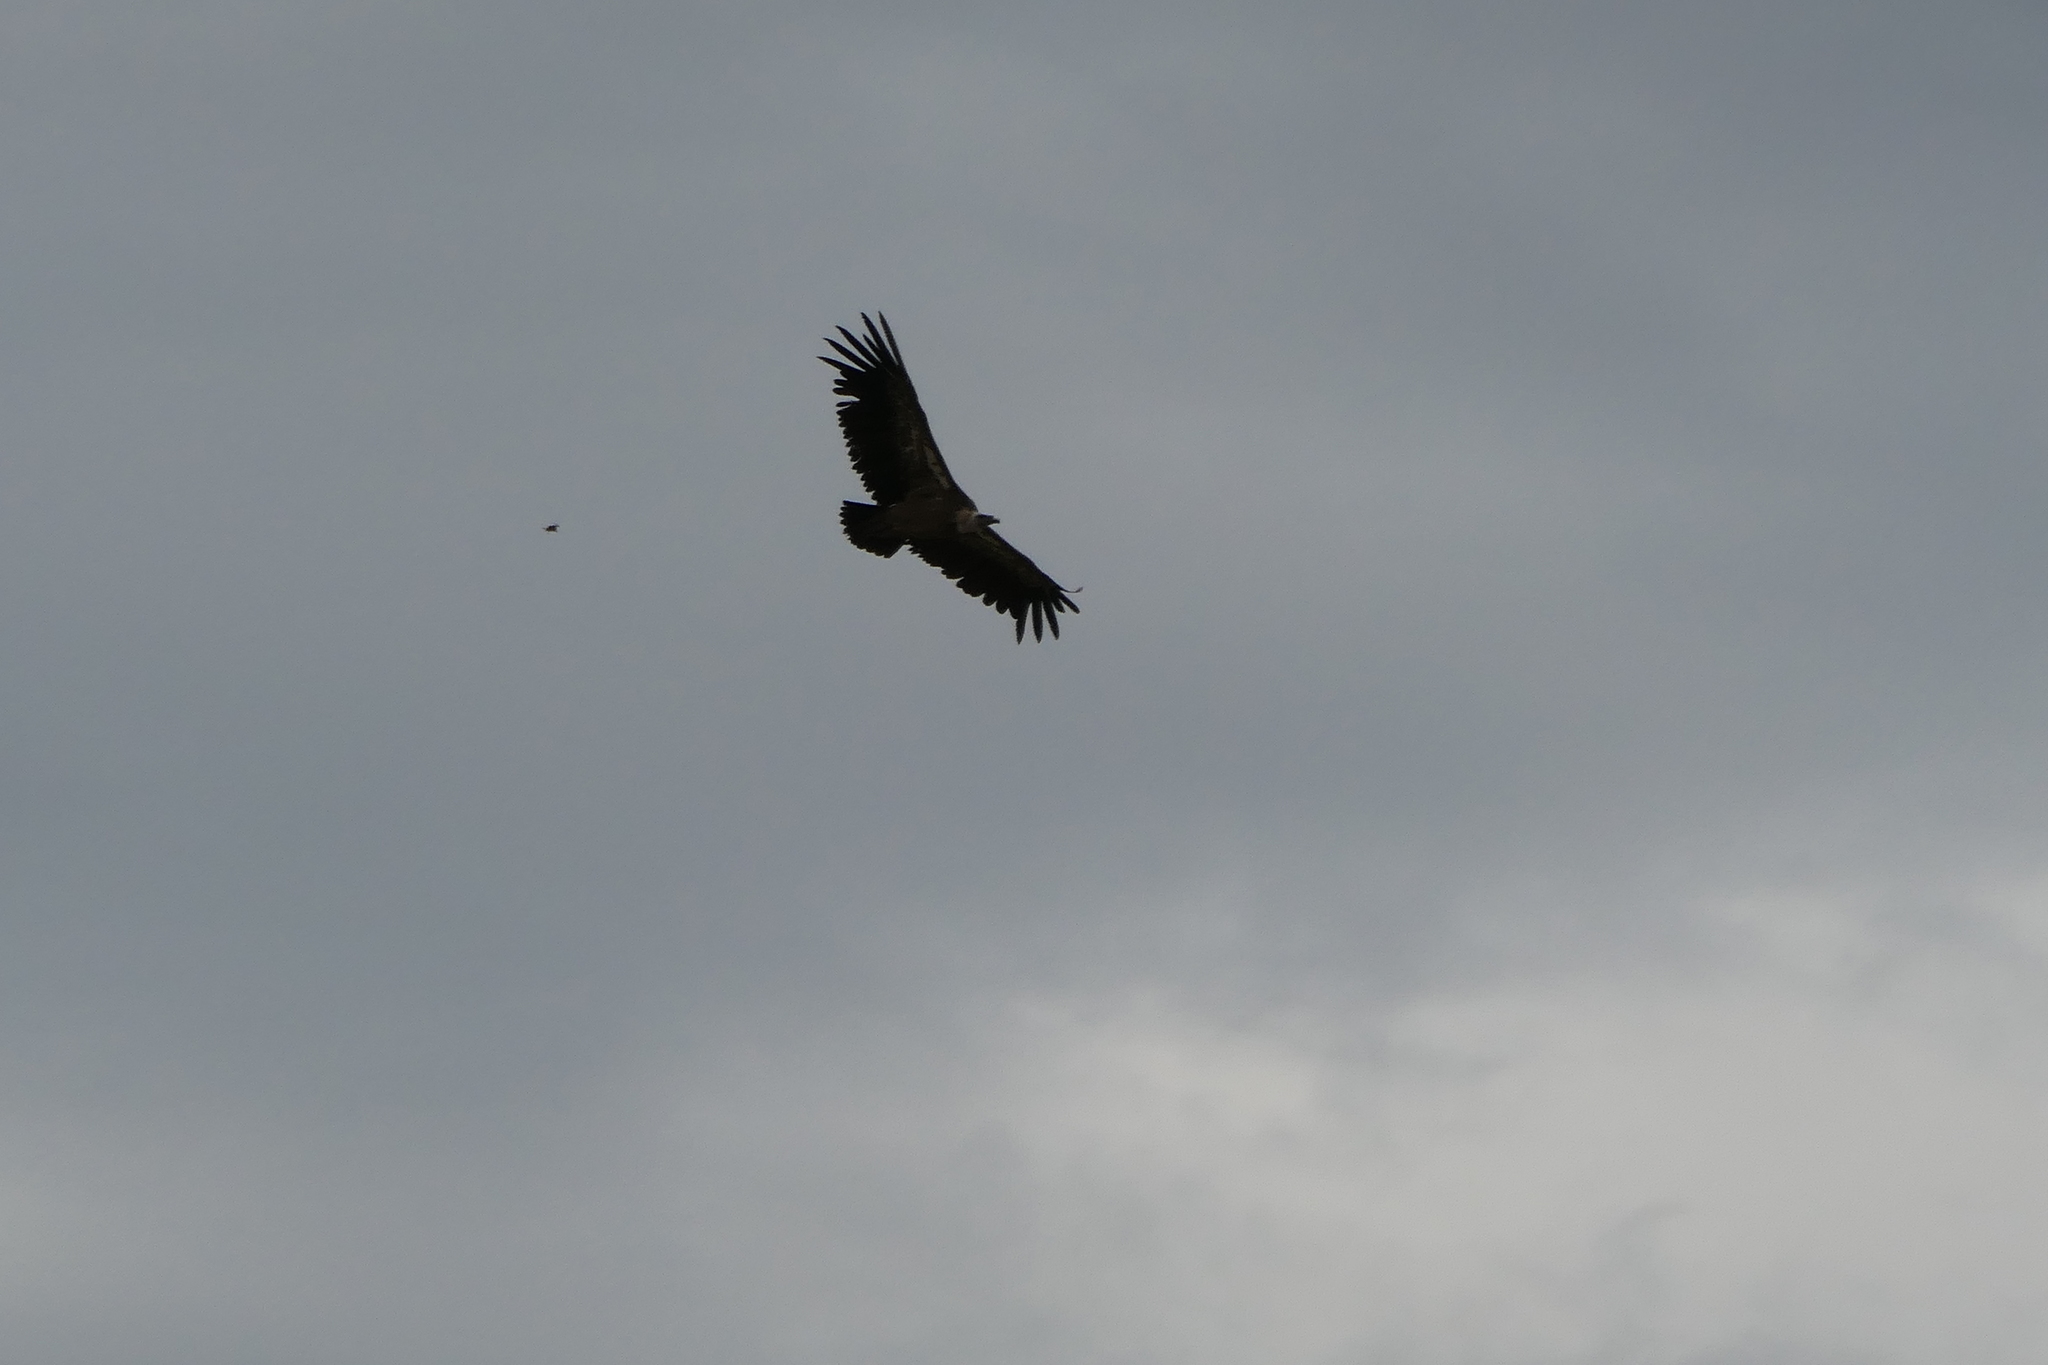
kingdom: Animalia
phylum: Chordata
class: Aves
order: Accipitriformes
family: Accipitridae
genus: Gyps
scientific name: Gyps fulvus
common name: Griffon vulture
